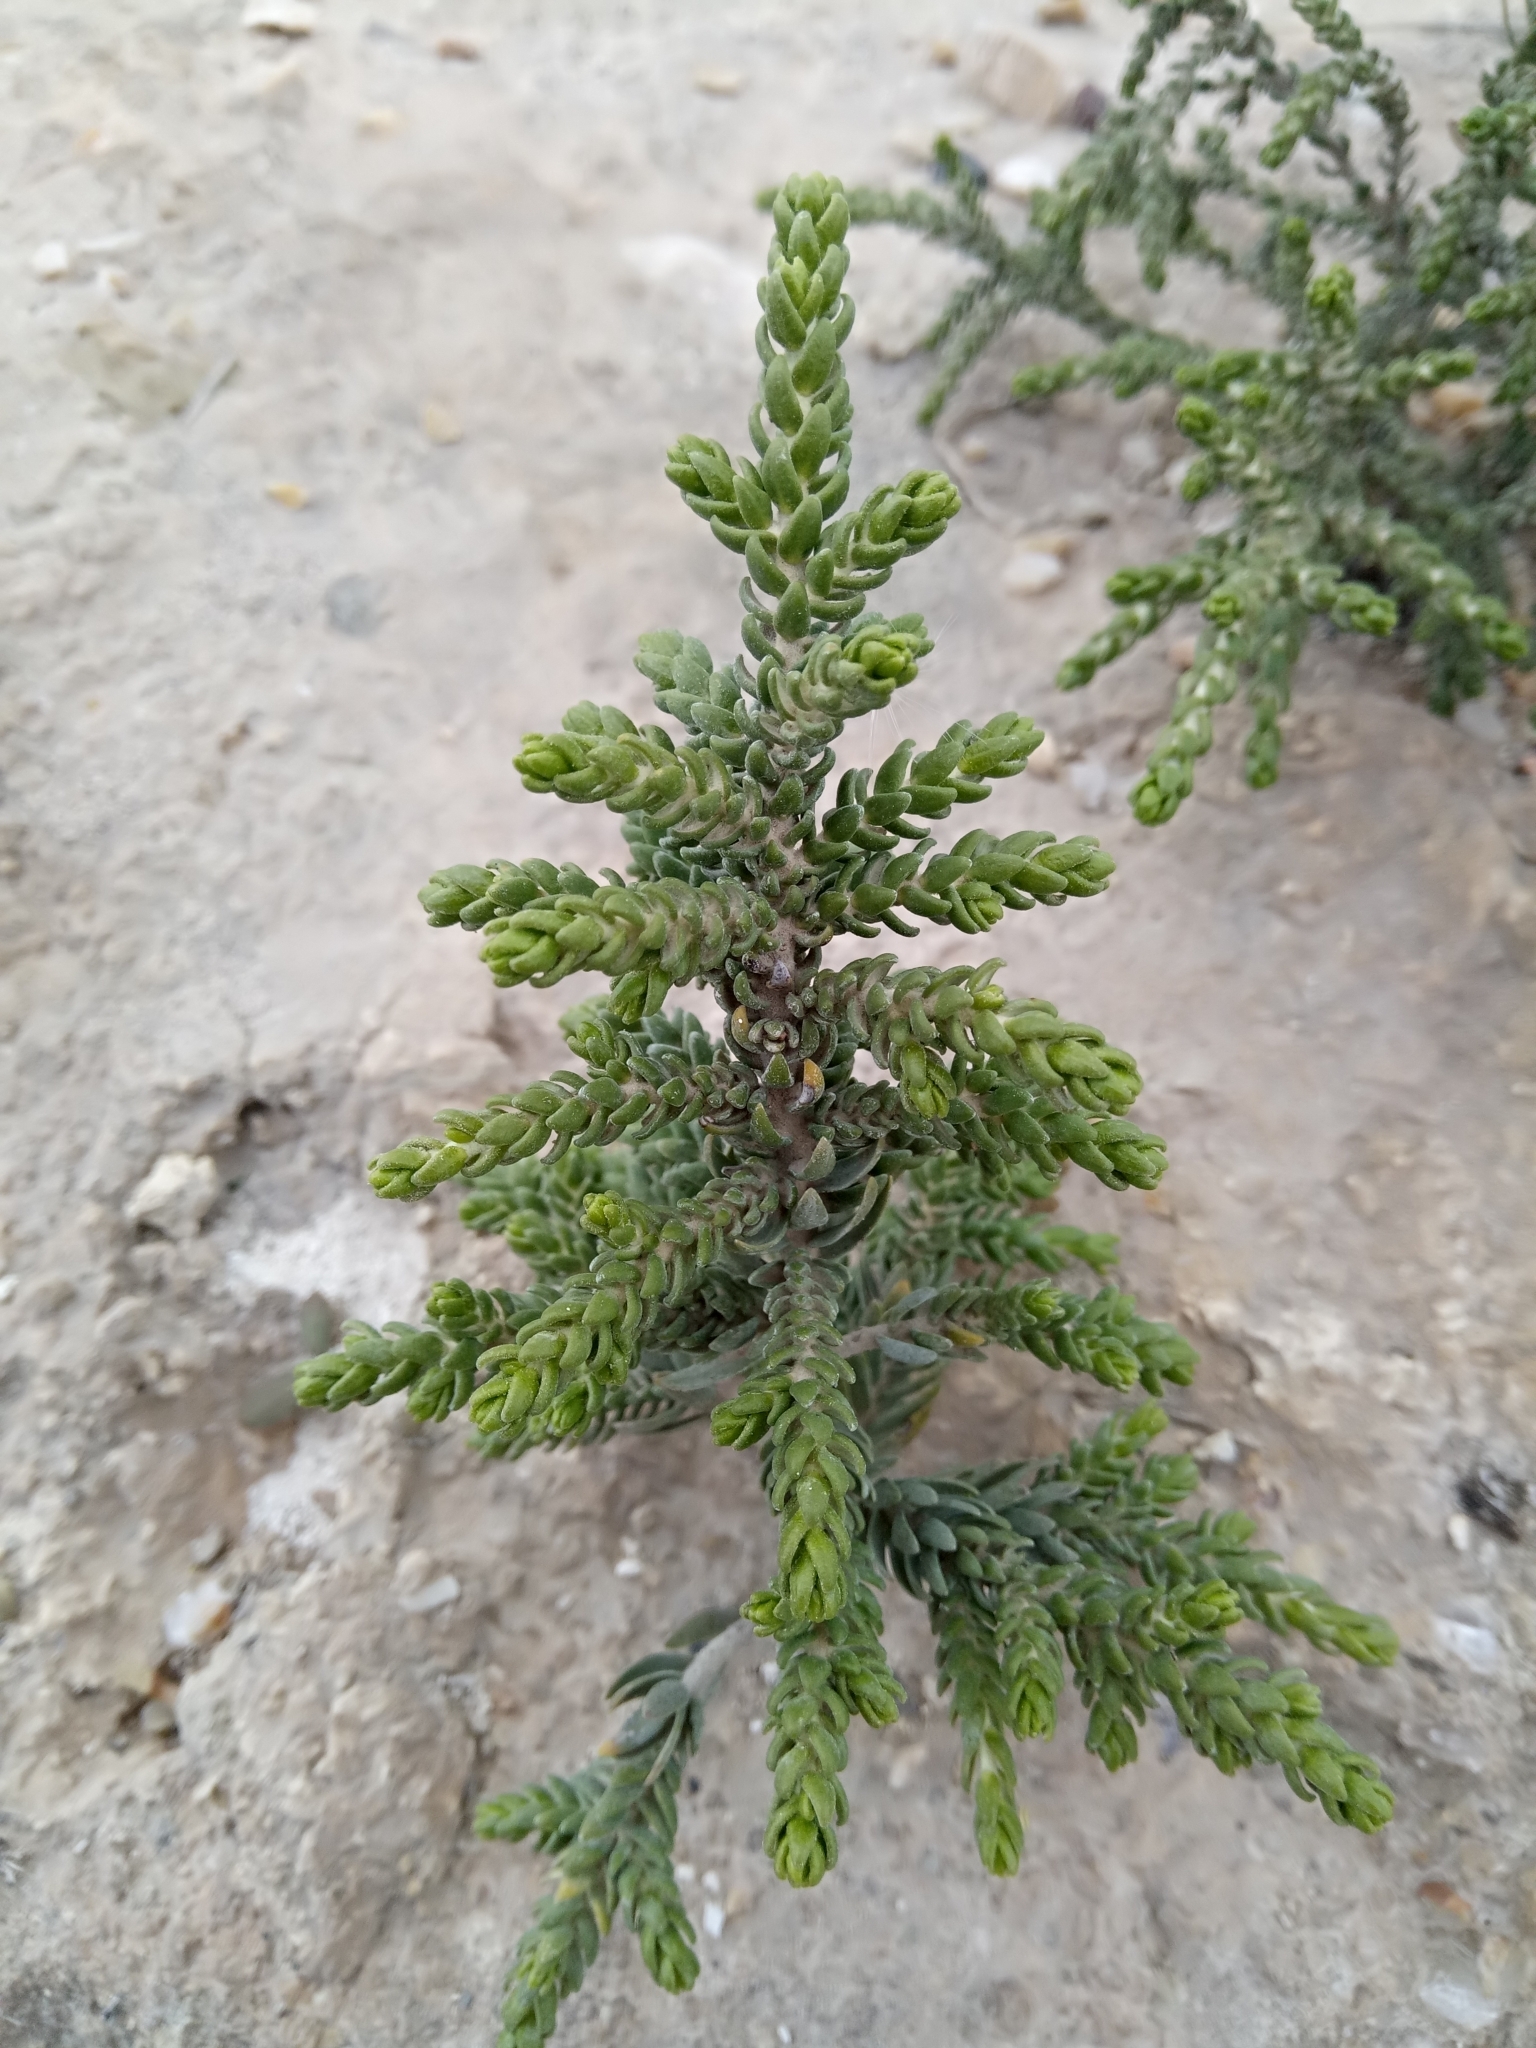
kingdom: Plantae
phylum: Tracheophyta
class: Magnoliopsida
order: Malvales
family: Thymelaeaceae
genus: Thymelaea
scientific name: Thymelaea hirsuta
